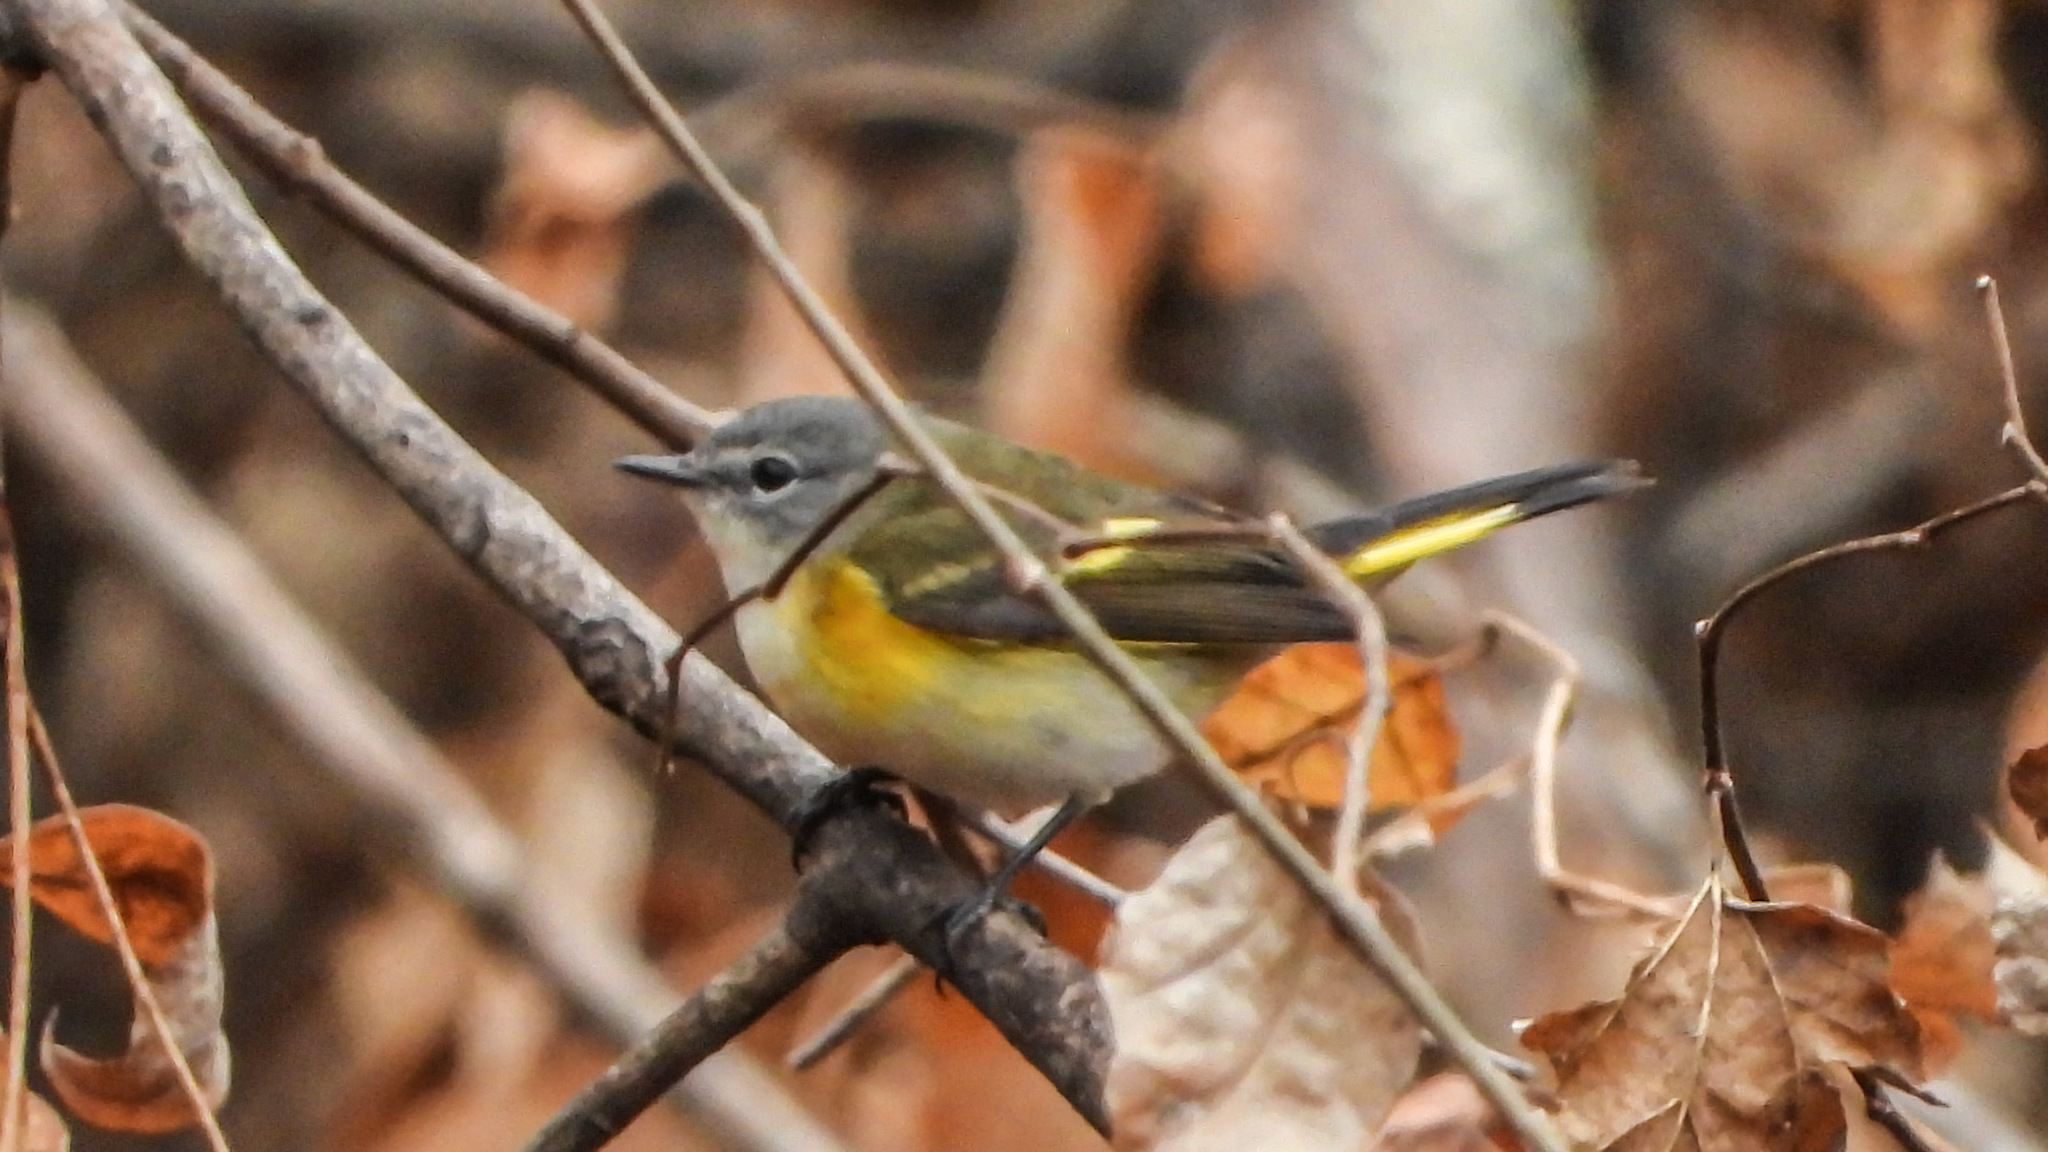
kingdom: Animalia
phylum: Chordata
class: Aves
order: Passeriformes
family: Parulidae
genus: Setophaga
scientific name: Setophaga ruticilla
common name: American redstart
